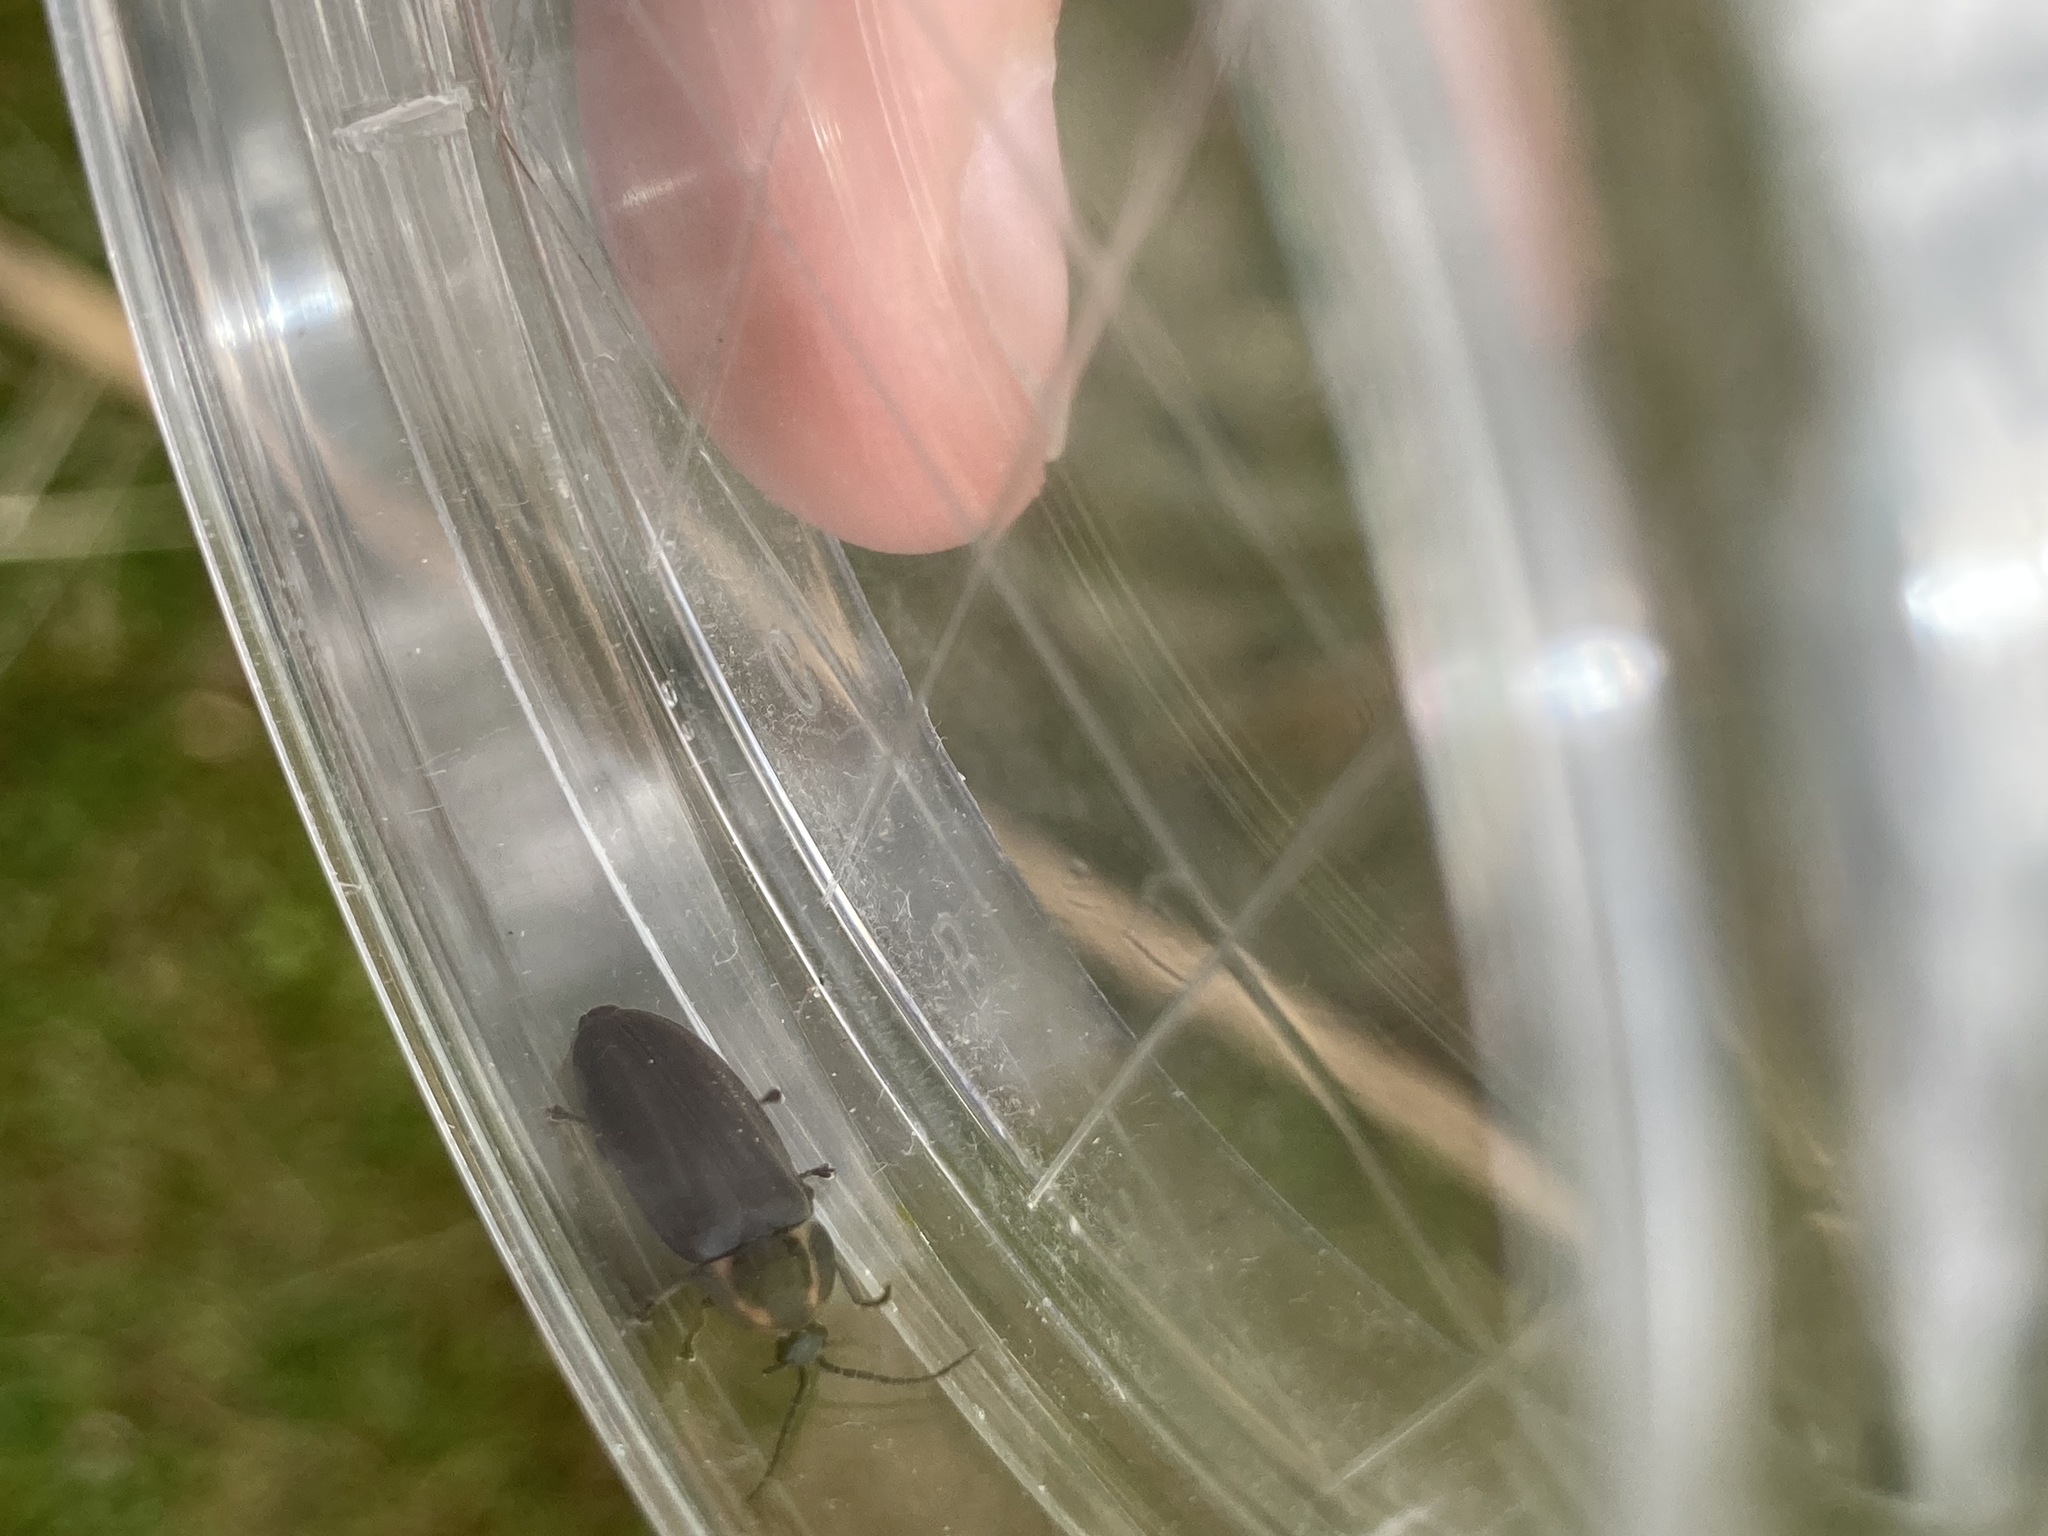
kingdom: Animalia
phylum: Arthropoda
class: Insecta
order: Coleoptera
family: Lampyridae
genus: Photinus
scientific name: Photinus corrusca
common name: Winter firefly
